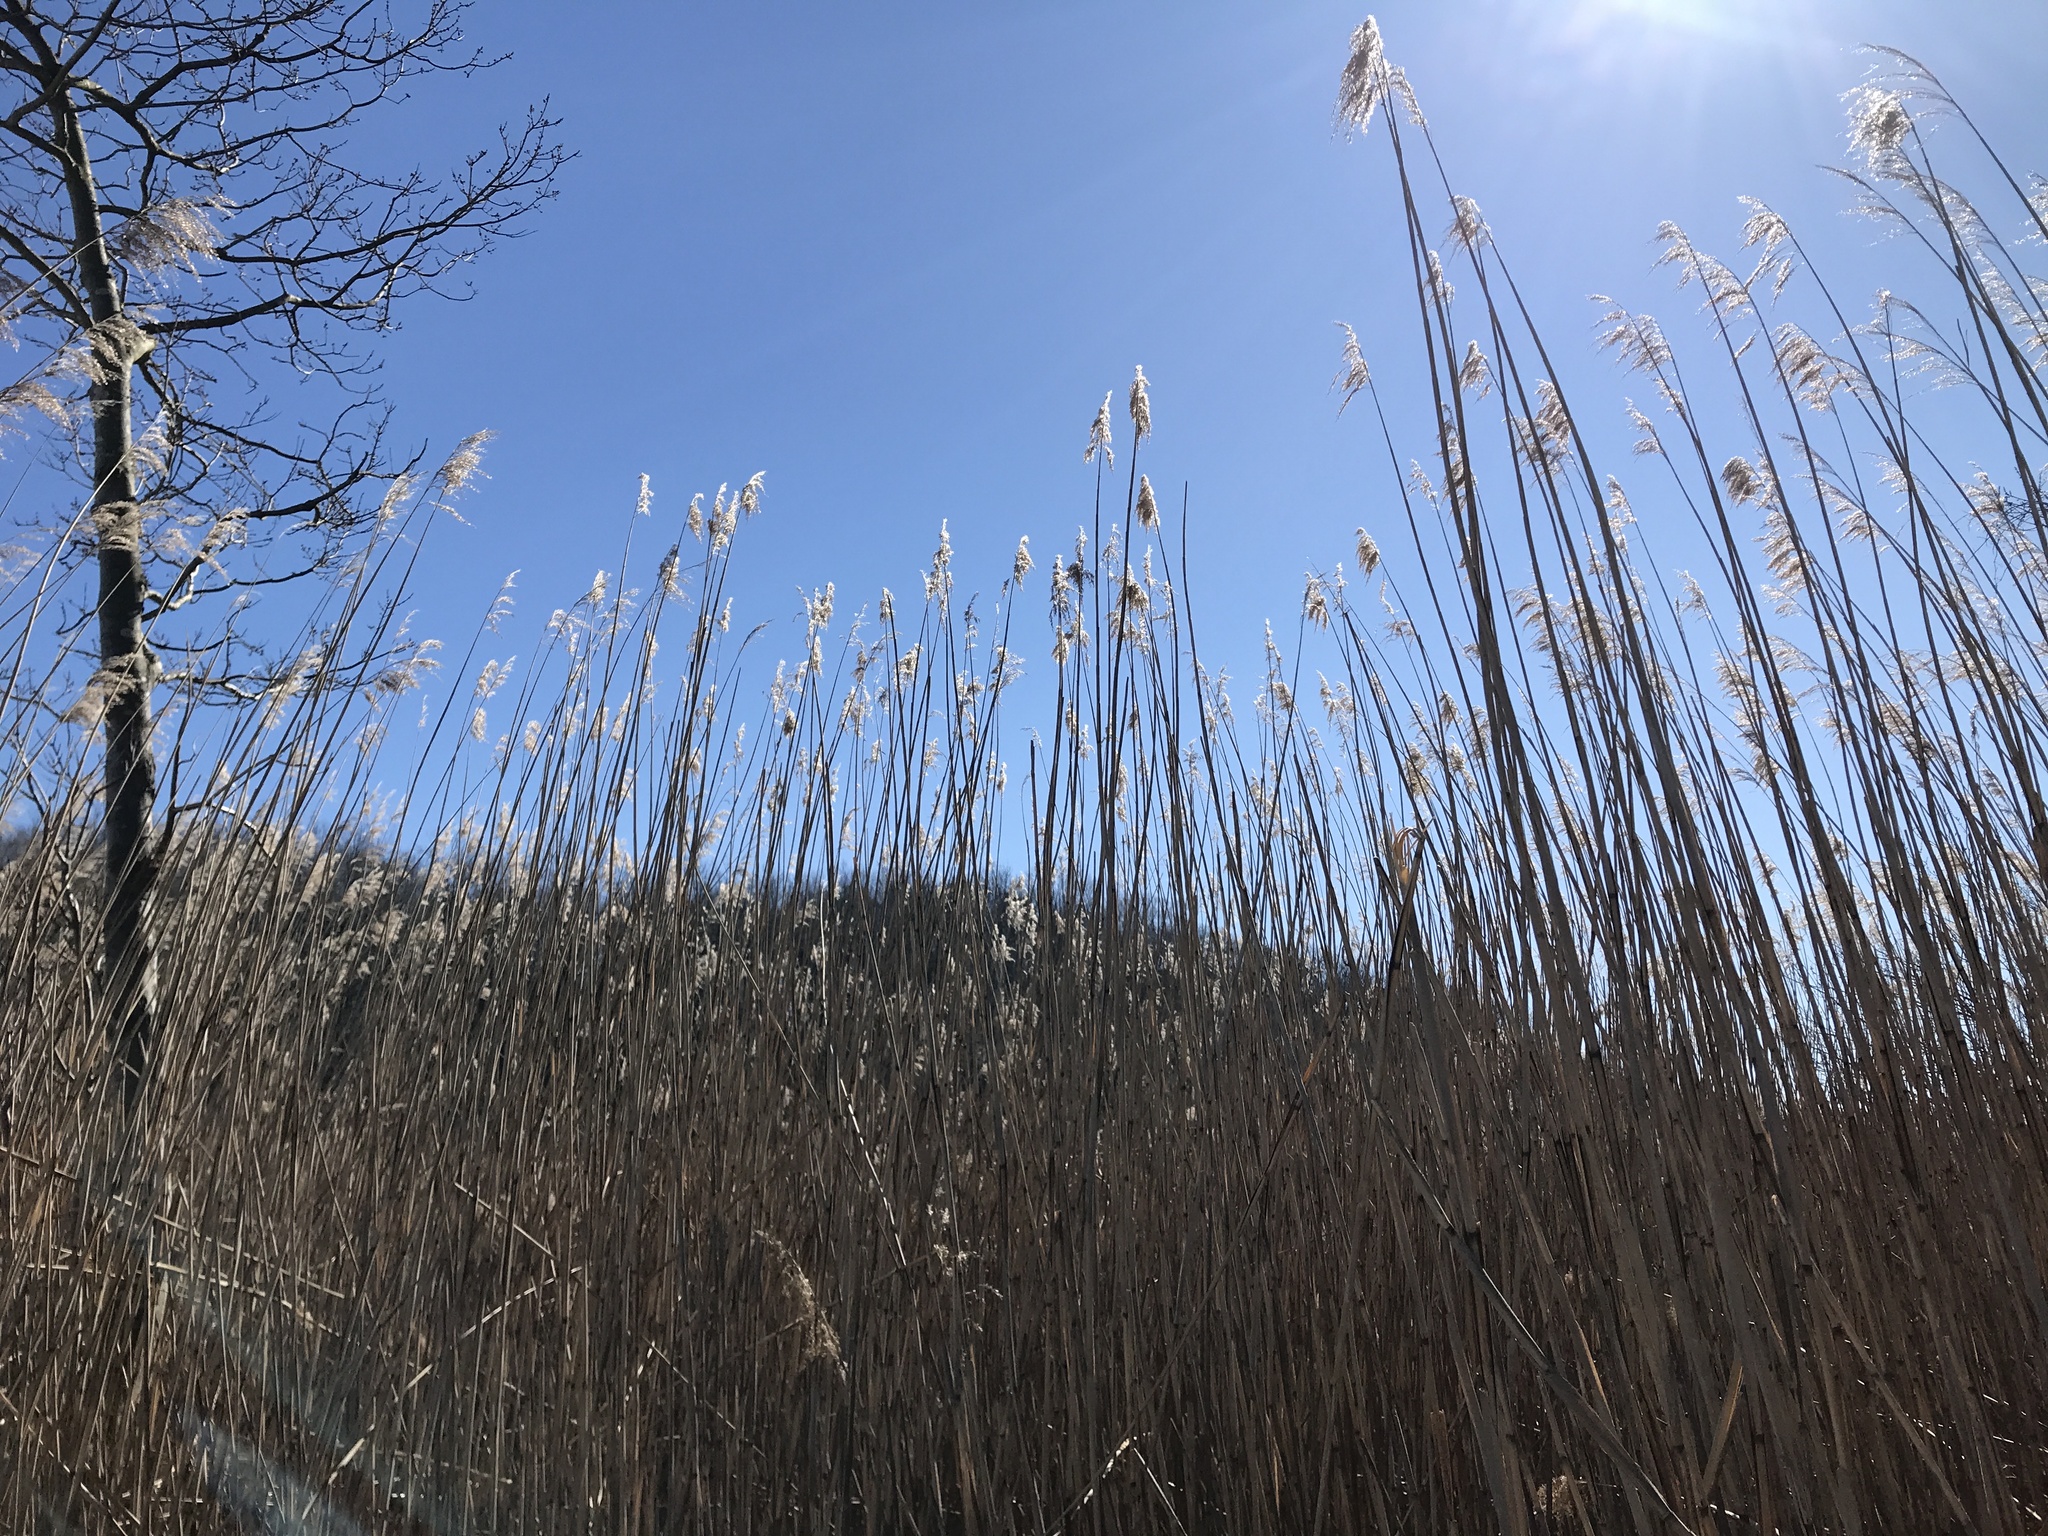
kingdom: Plantae
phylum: Tracheophyta
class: Liliopsida
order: Poales
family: Poaceae
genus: Phragmites
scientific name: Phragmites australis
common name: Common reed
